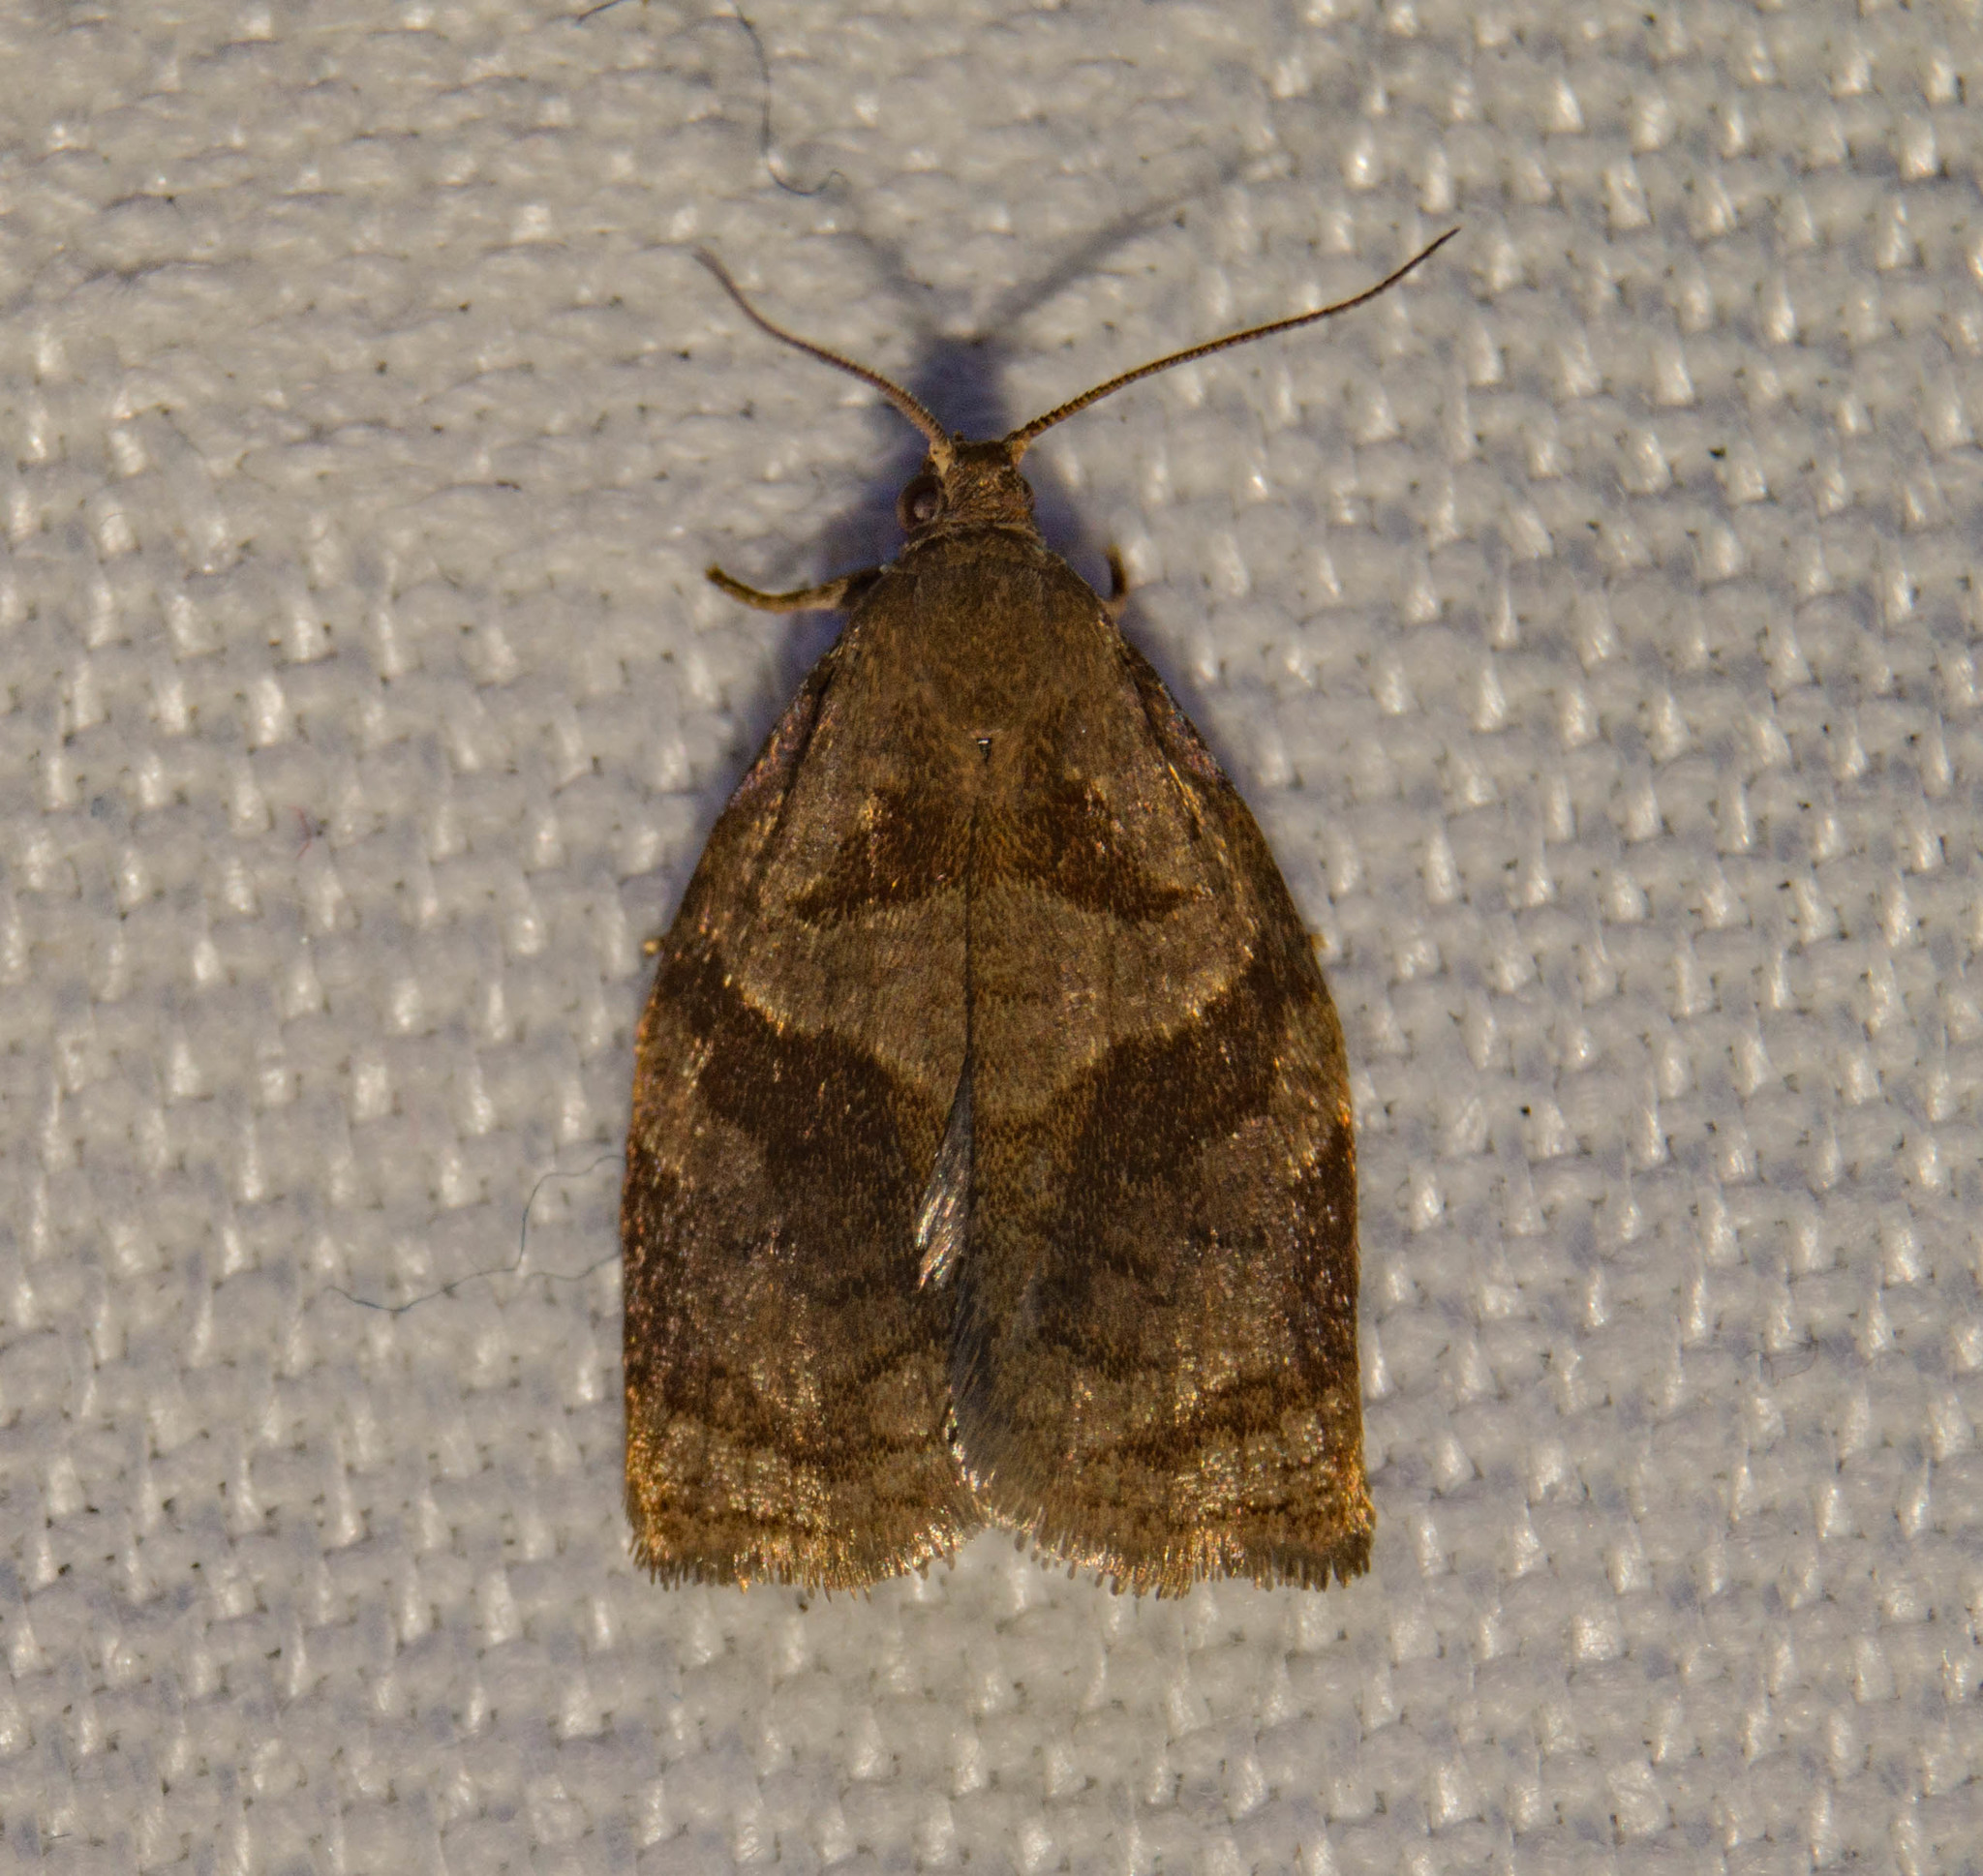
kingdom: Animalia
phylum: Arthropoda
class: Insecta
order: Lepidoptera
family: Tortricidae
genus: Archips
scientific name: Archips rosana
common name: Rose tortrix
